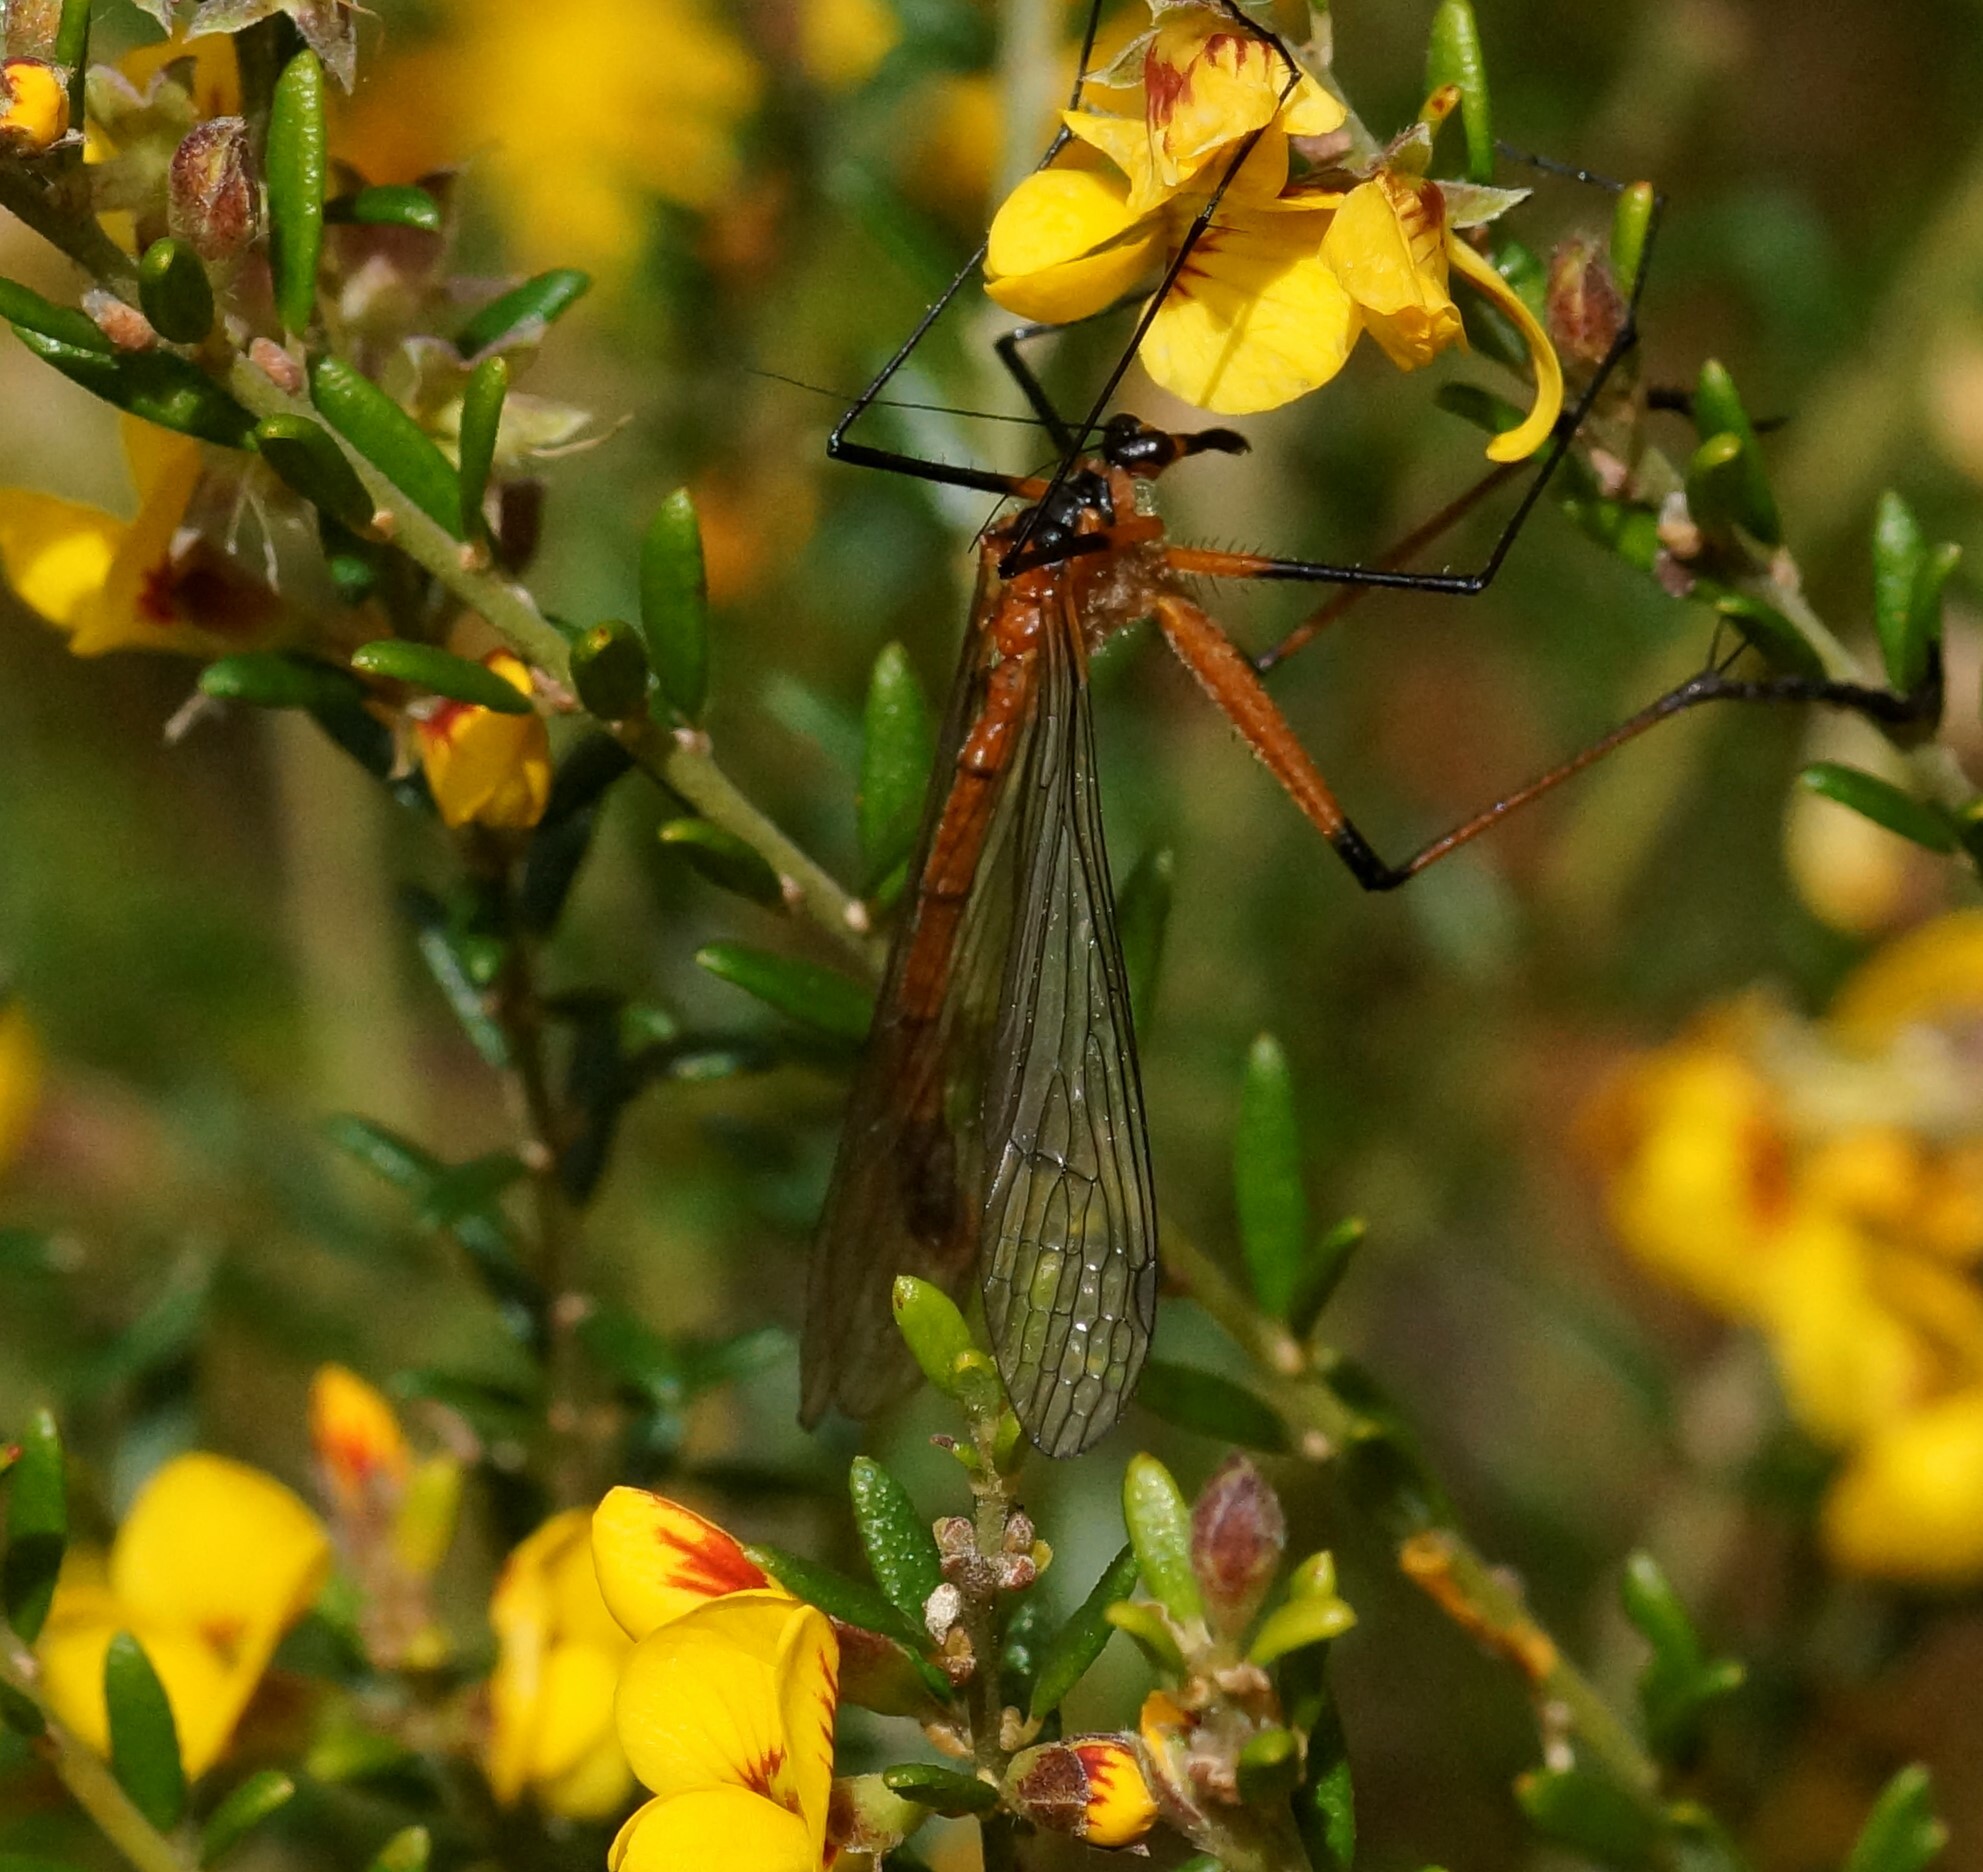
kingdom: Animalia
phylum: Arthropoda
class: Insecta
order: Mecoptera
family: Bittacidae
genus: Harpobittacus
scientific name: Harpobittacus australis
